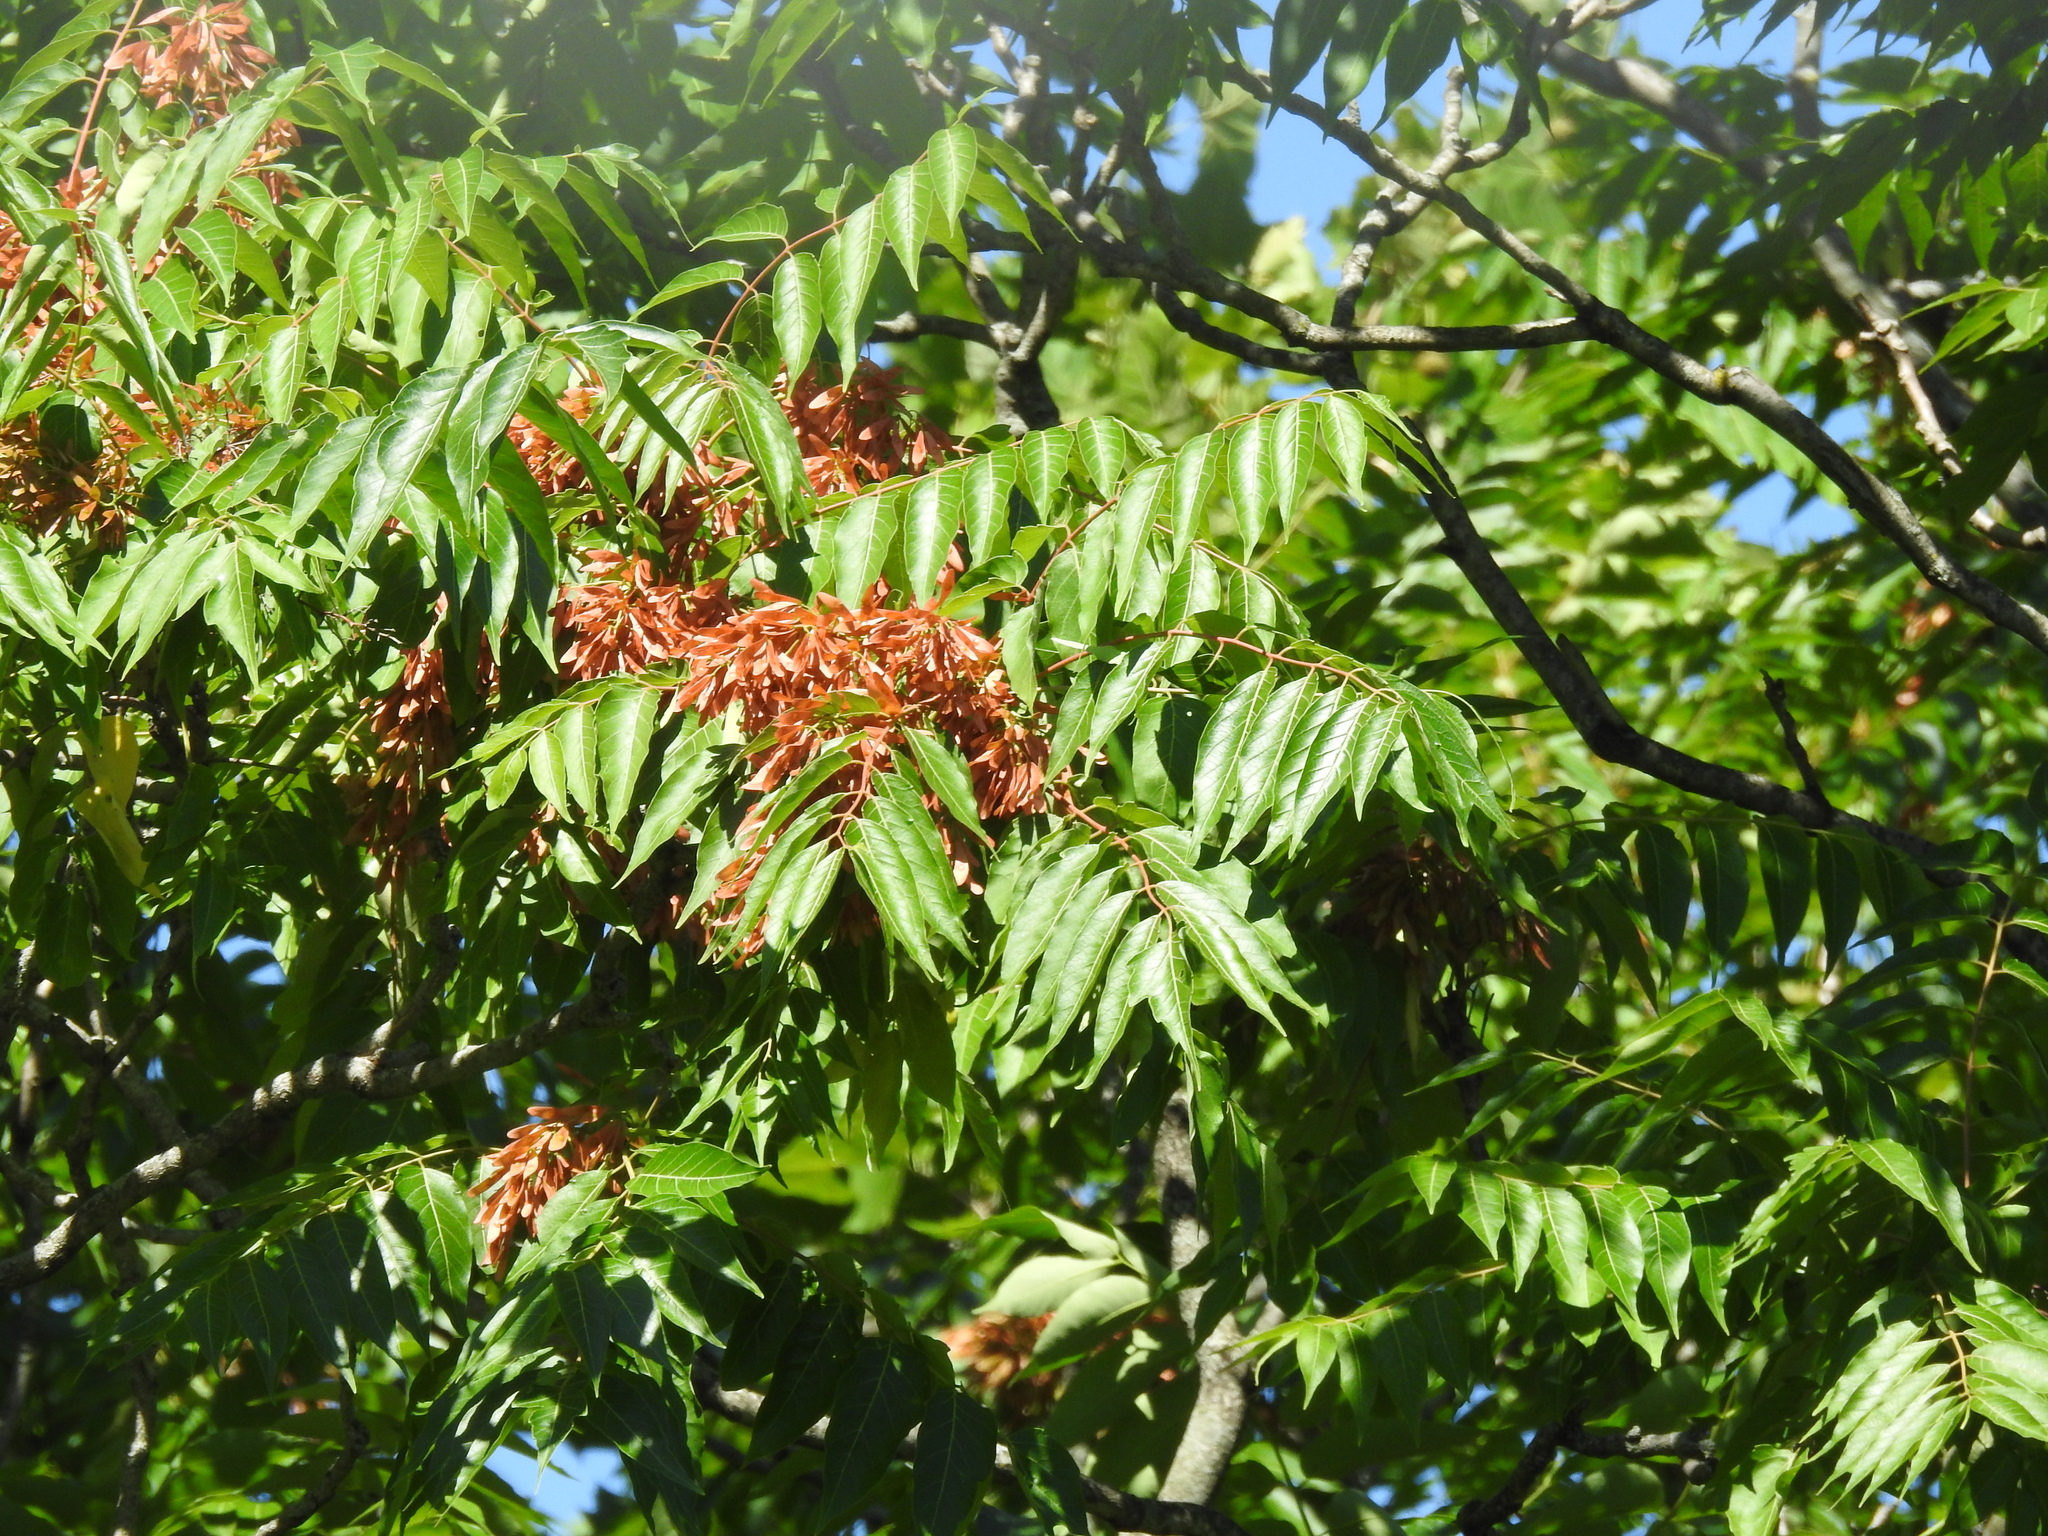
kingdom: Plantae
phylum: Tracheophyta
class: Magnoliopsida
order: Sapindales
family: Simaroubaceae
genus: Ailanthus
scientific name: Ailanthus altissima
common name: Tree-of-heaven
